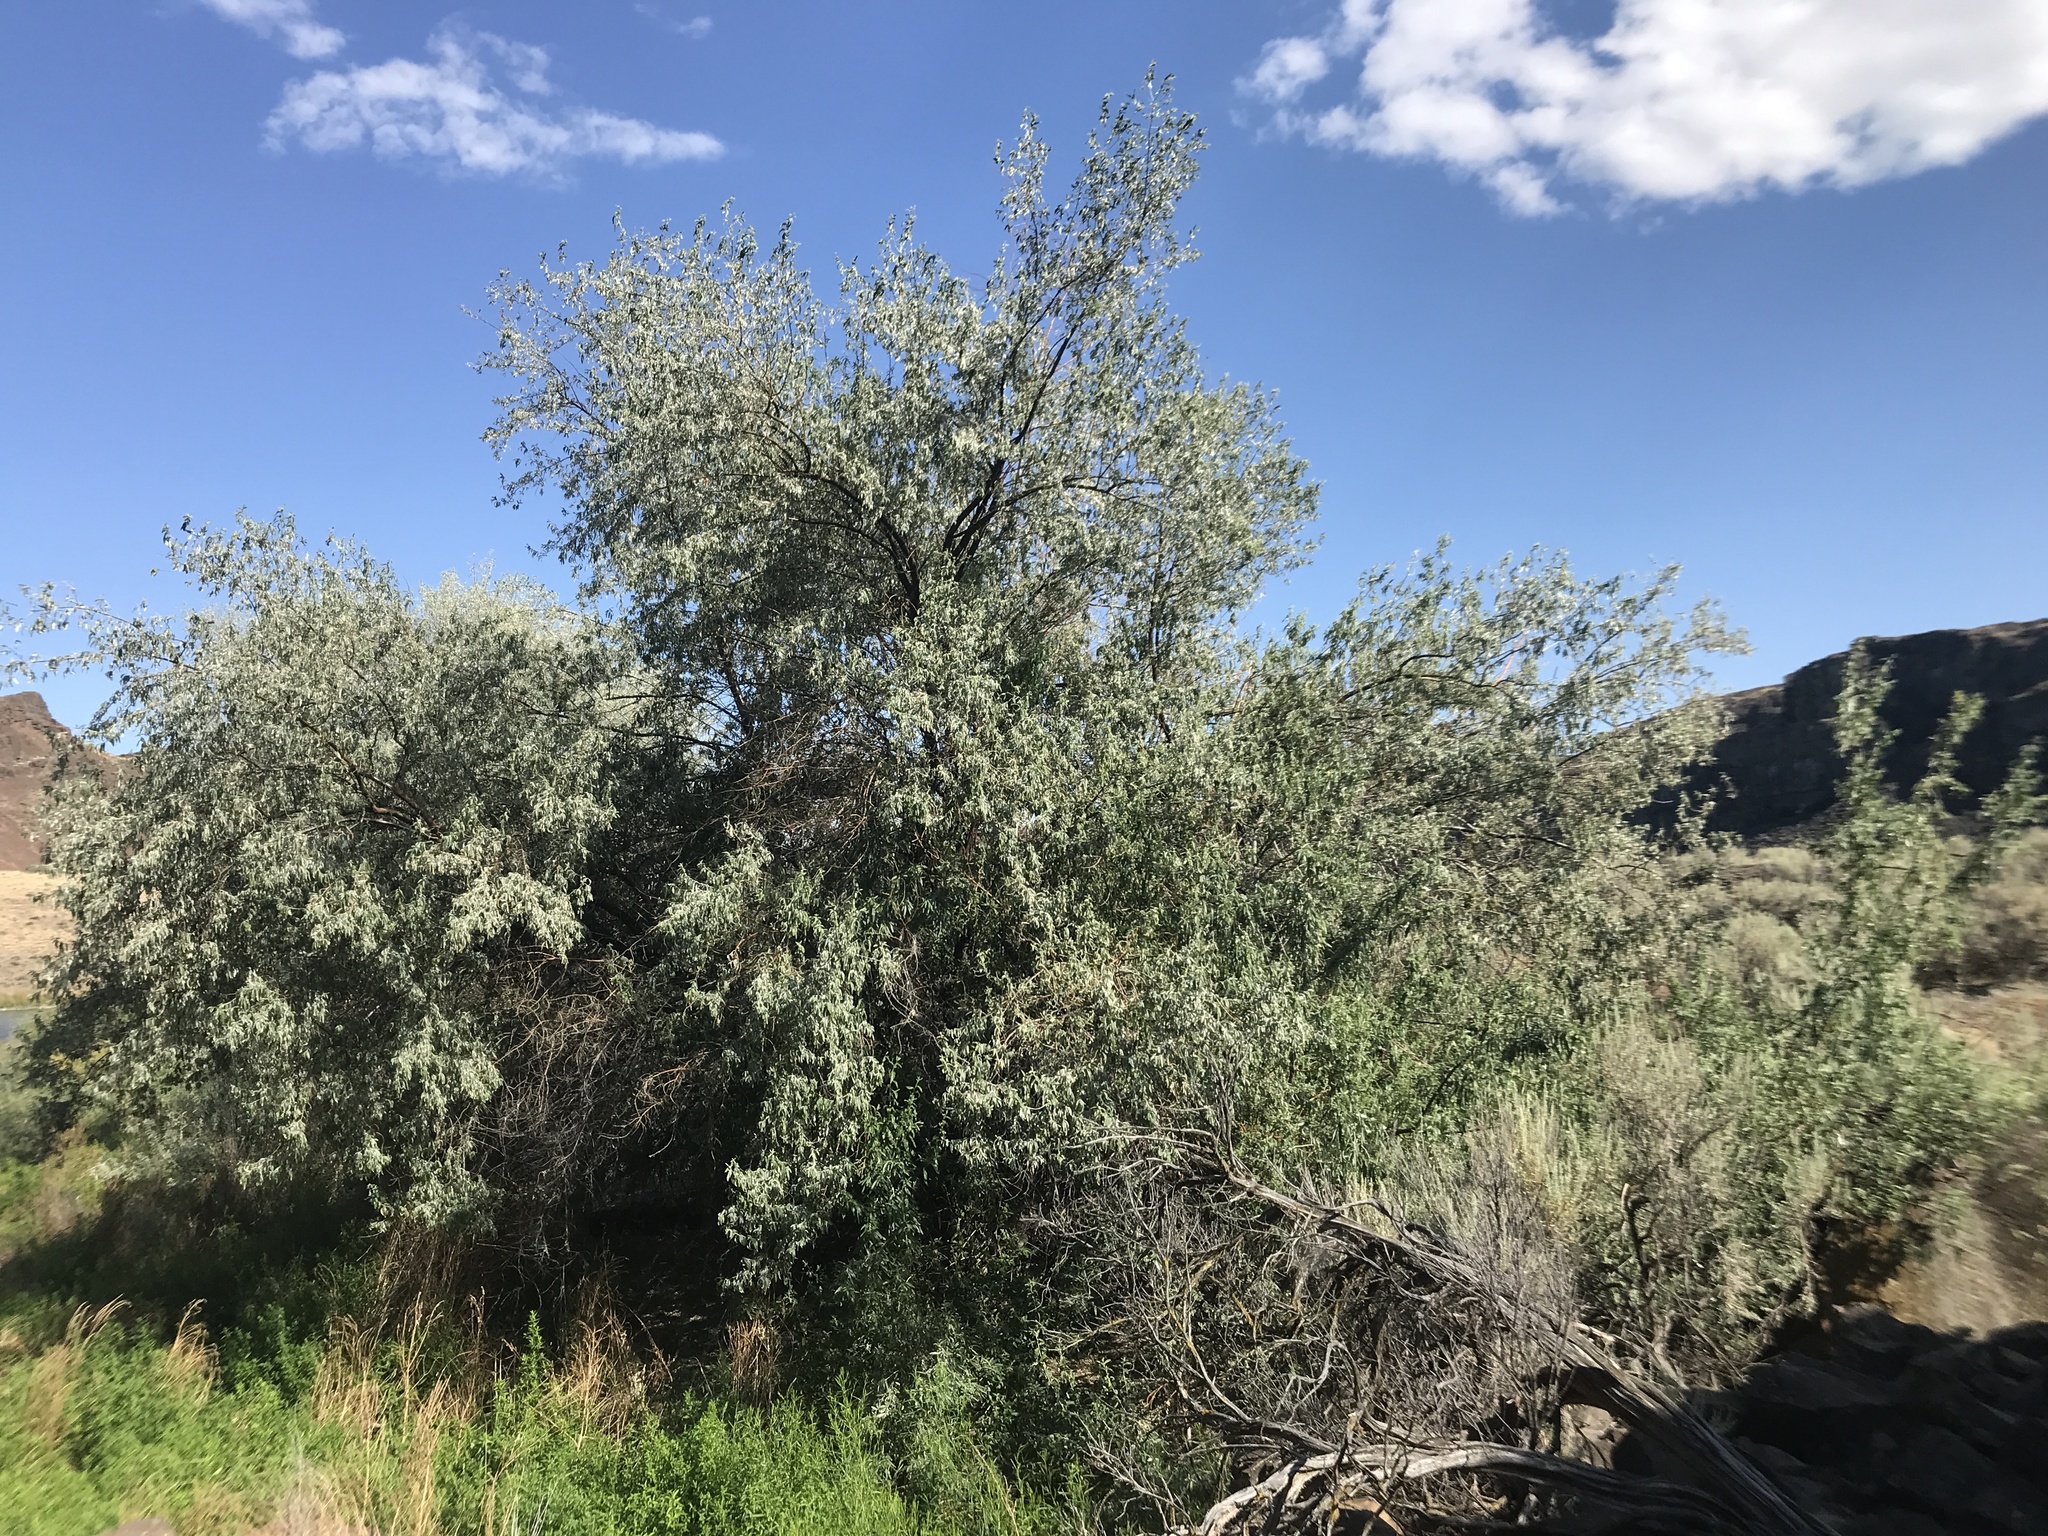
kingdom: Plantae
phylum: Tracheophyta
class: Magnoliopsida
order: Rosales
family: Elaeagnaceae
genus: Elaeagnus
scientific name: Elaeagnus angustifolia
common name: Russian olive
